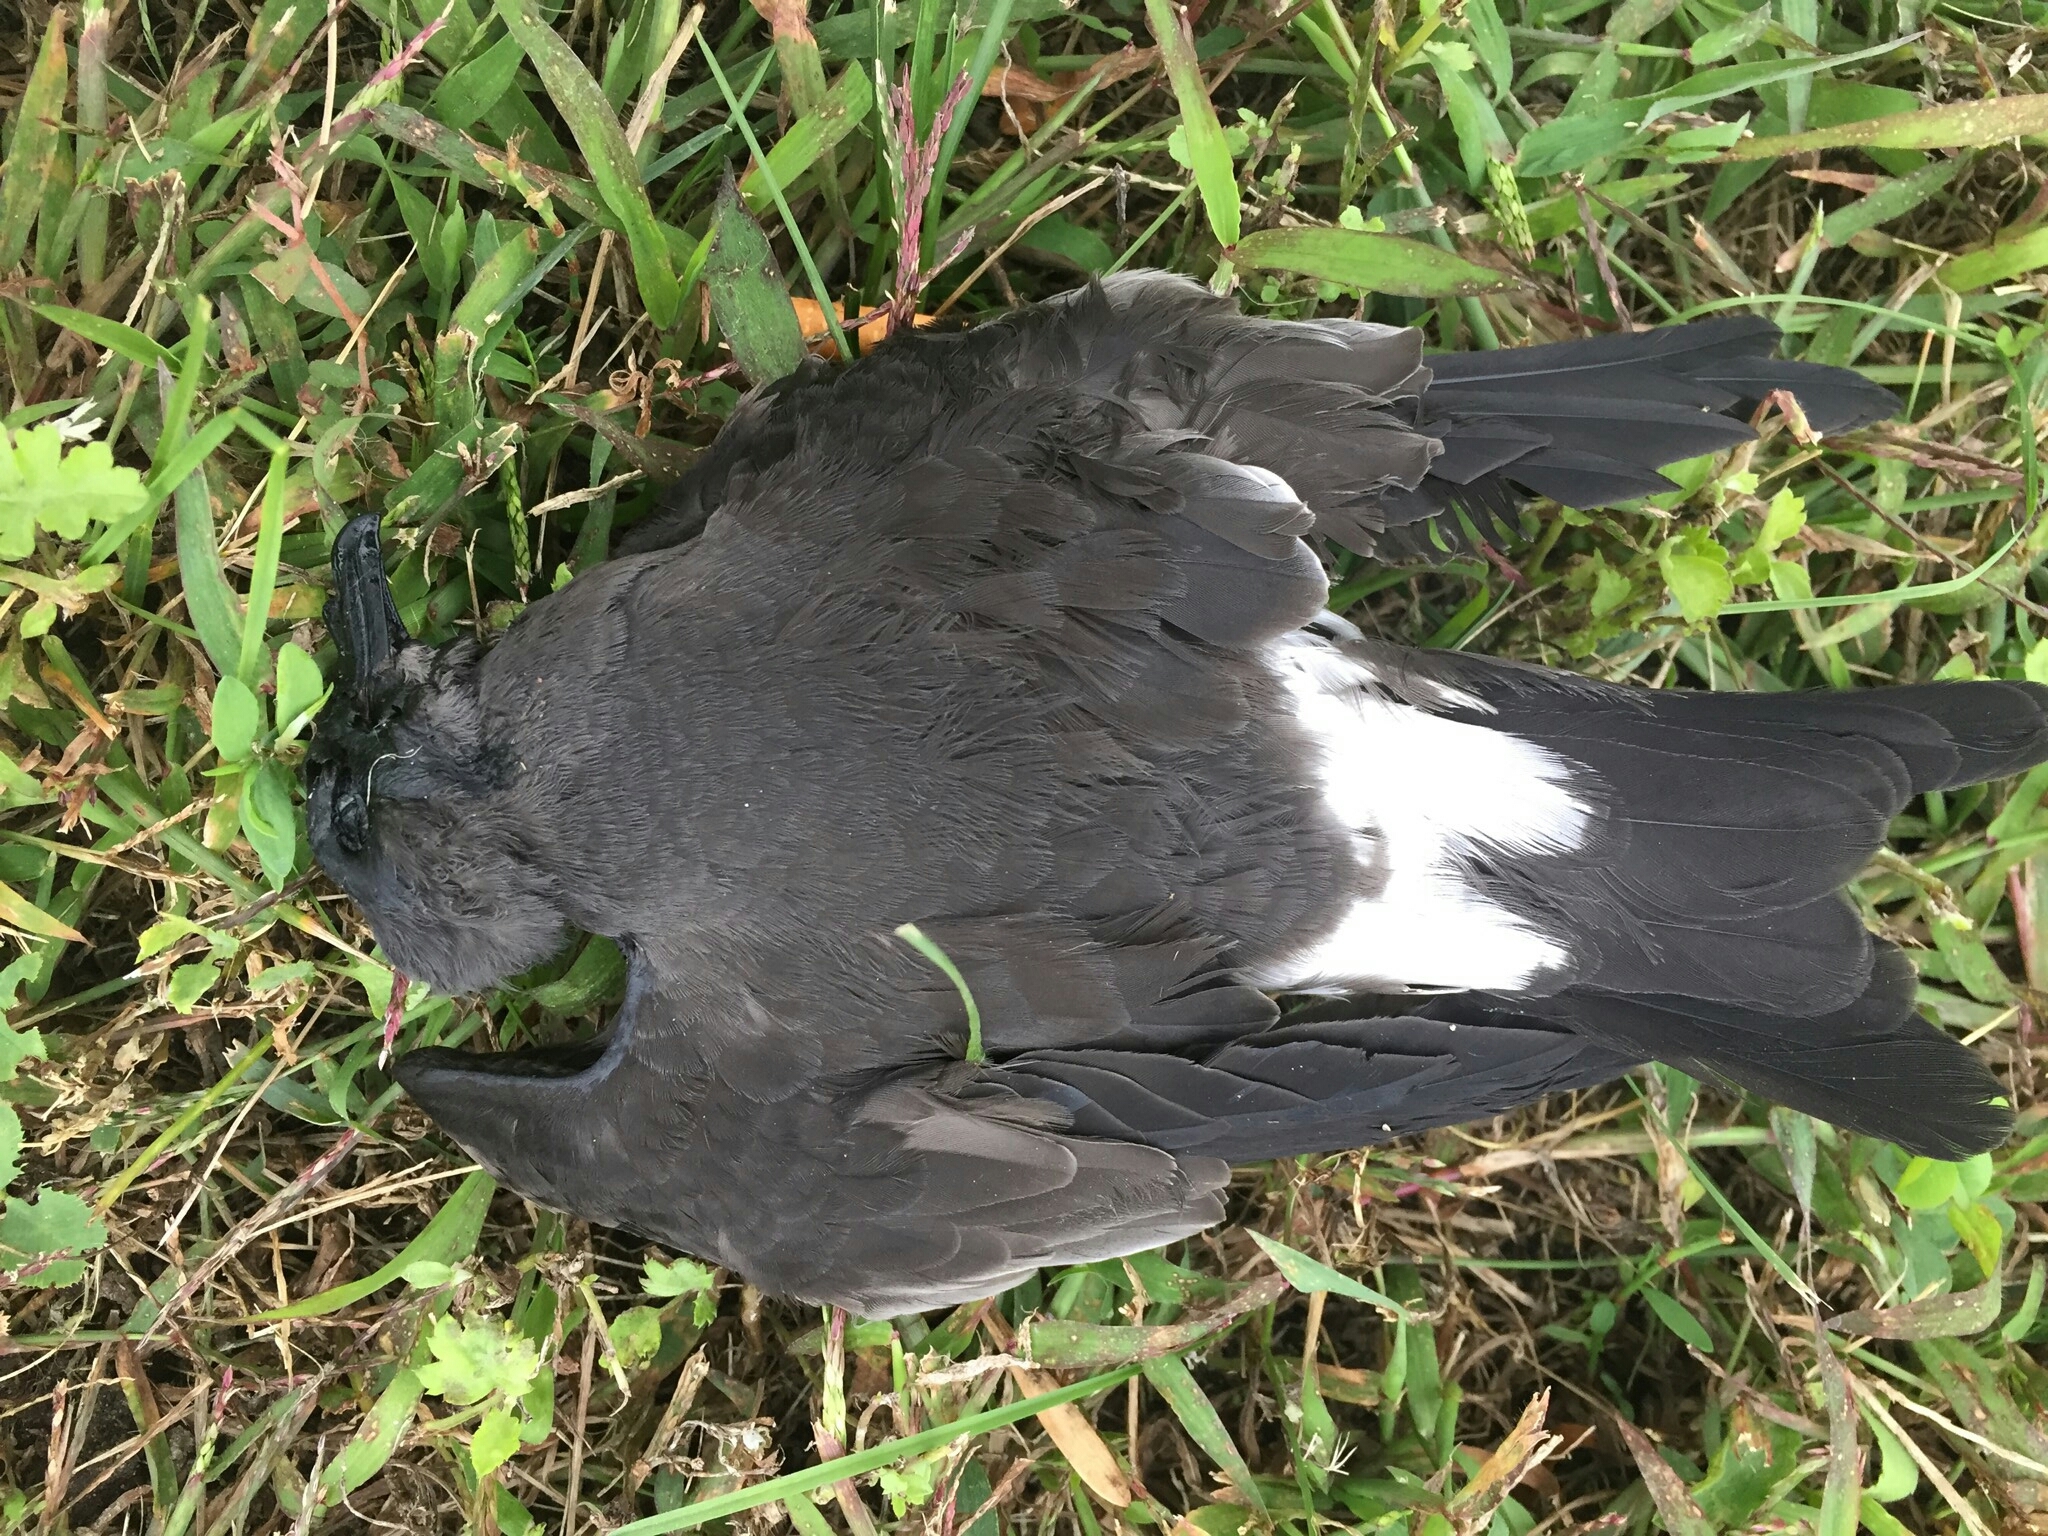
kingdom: Animalia
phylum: Chordata
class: Aves
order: Procellariiformes
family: Hydrobatidae
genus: Oceanodroma
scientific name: Oceanodroma leucorhoa
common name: Leach's storm-petrel
